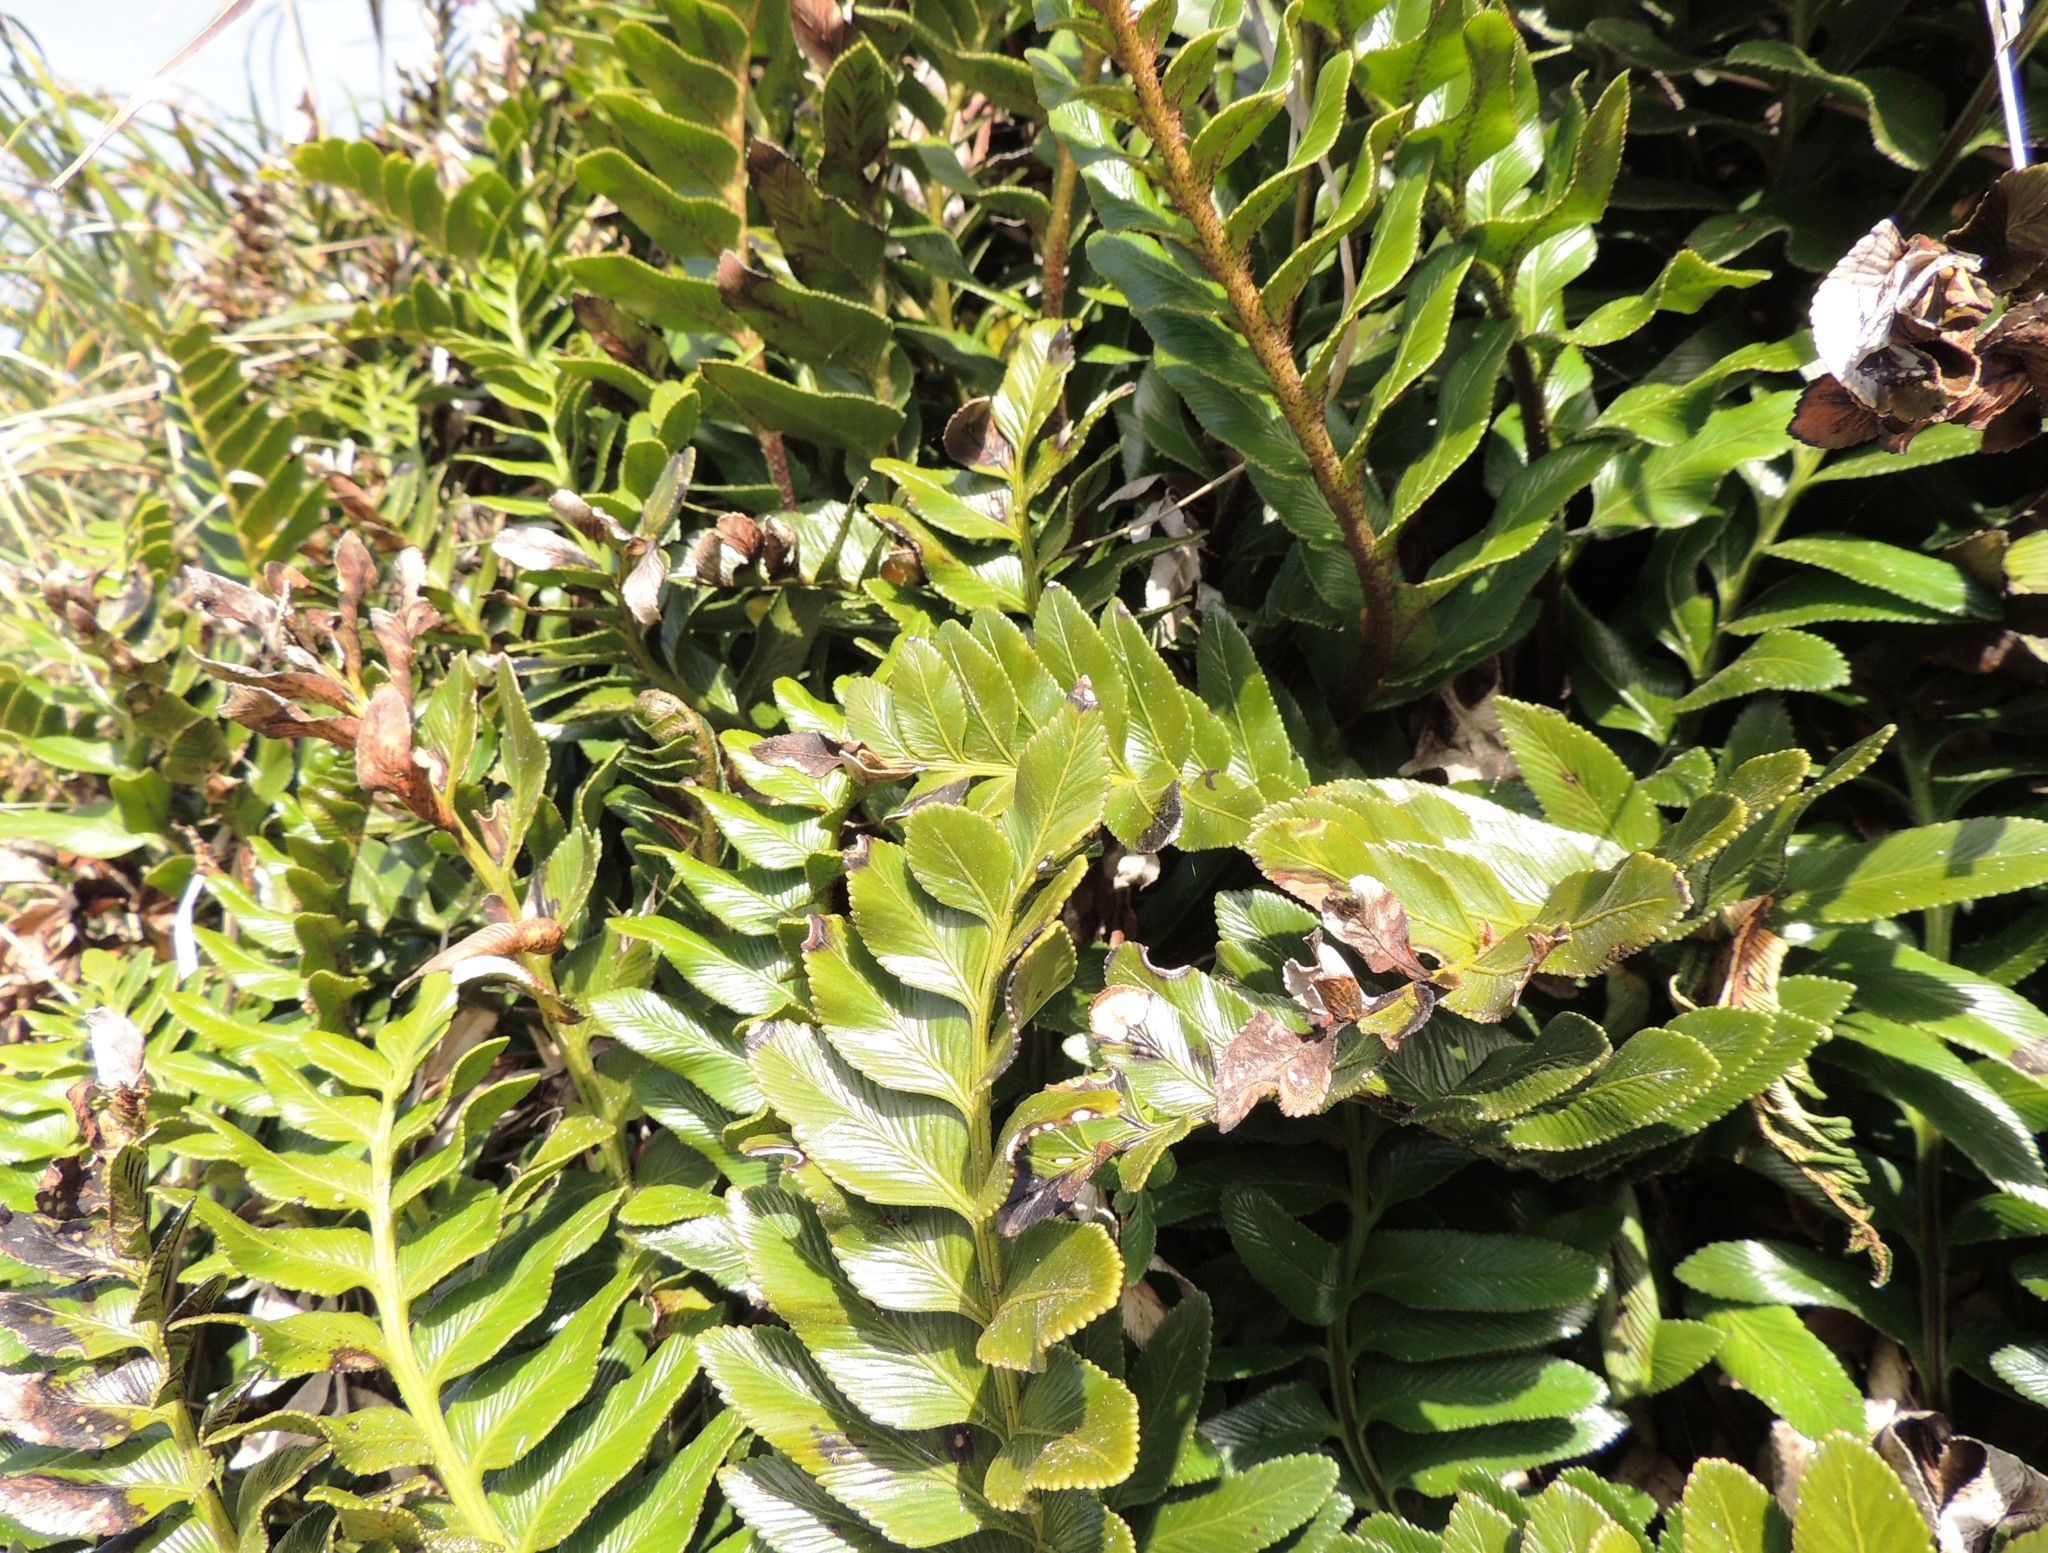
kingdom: Plantae
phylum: Tracheophyta
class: Polypodiopsida
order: Polypodiales
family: Aspleniaceae
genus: Asplenium
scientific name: Asplenium obtusatum
